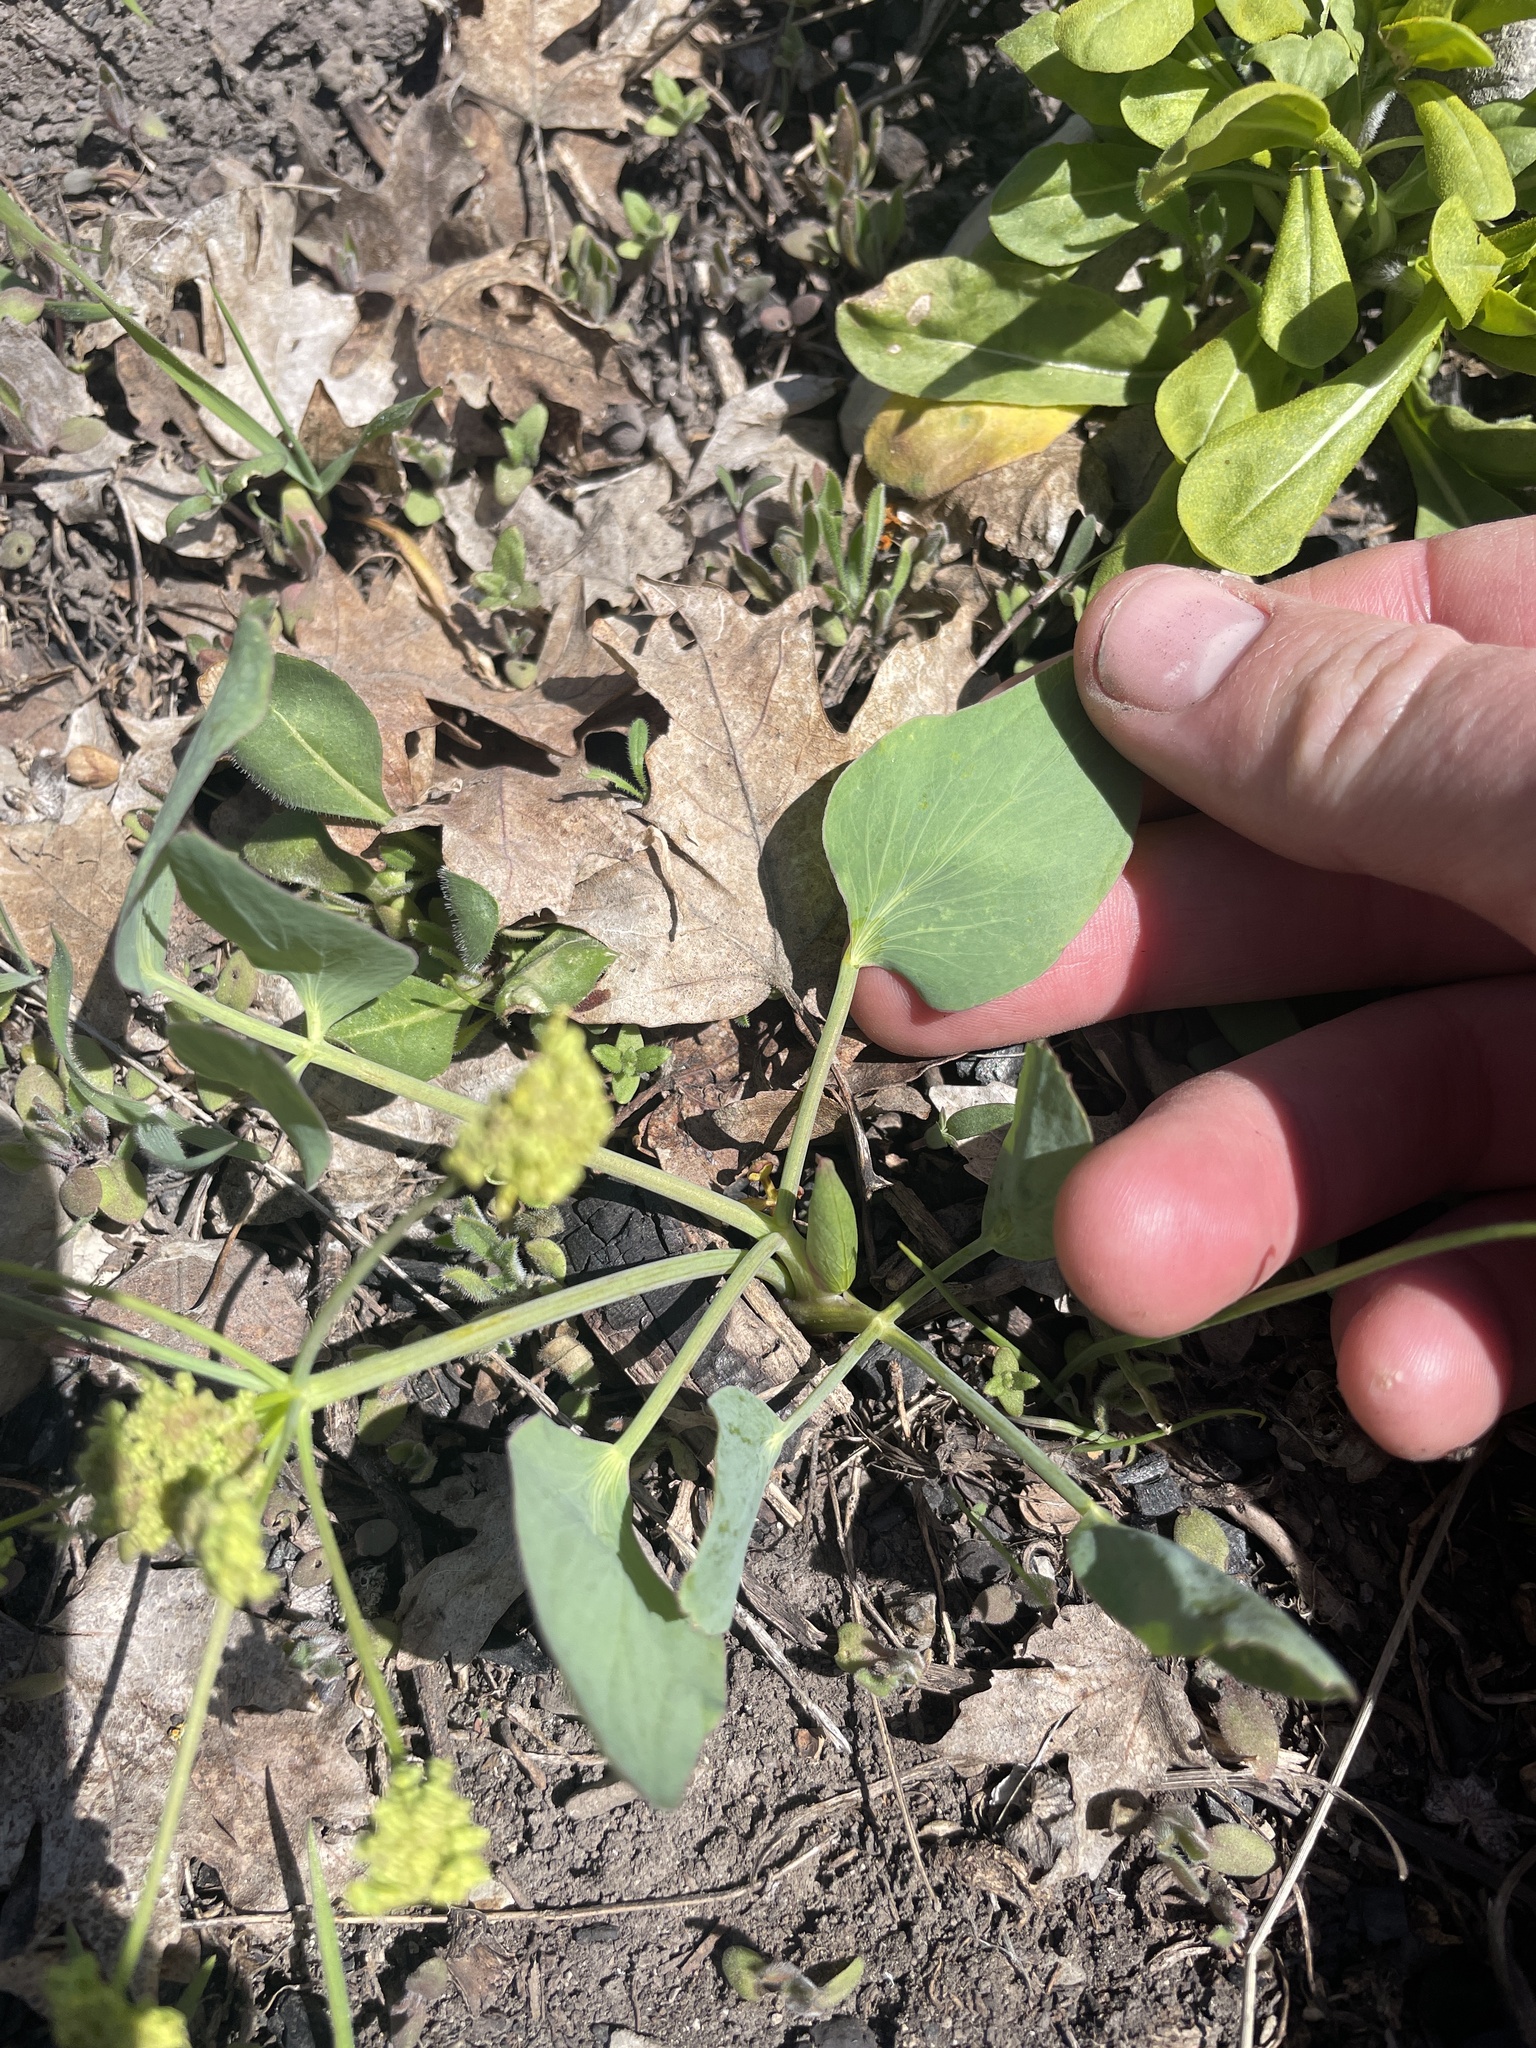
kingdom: Plantae
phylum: Tracheophyta
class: Magnoliopsida
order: Apiales
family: Apiaceae
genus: Lomatium
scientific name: Lomatium nudicaule
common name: Pestle lomatium
